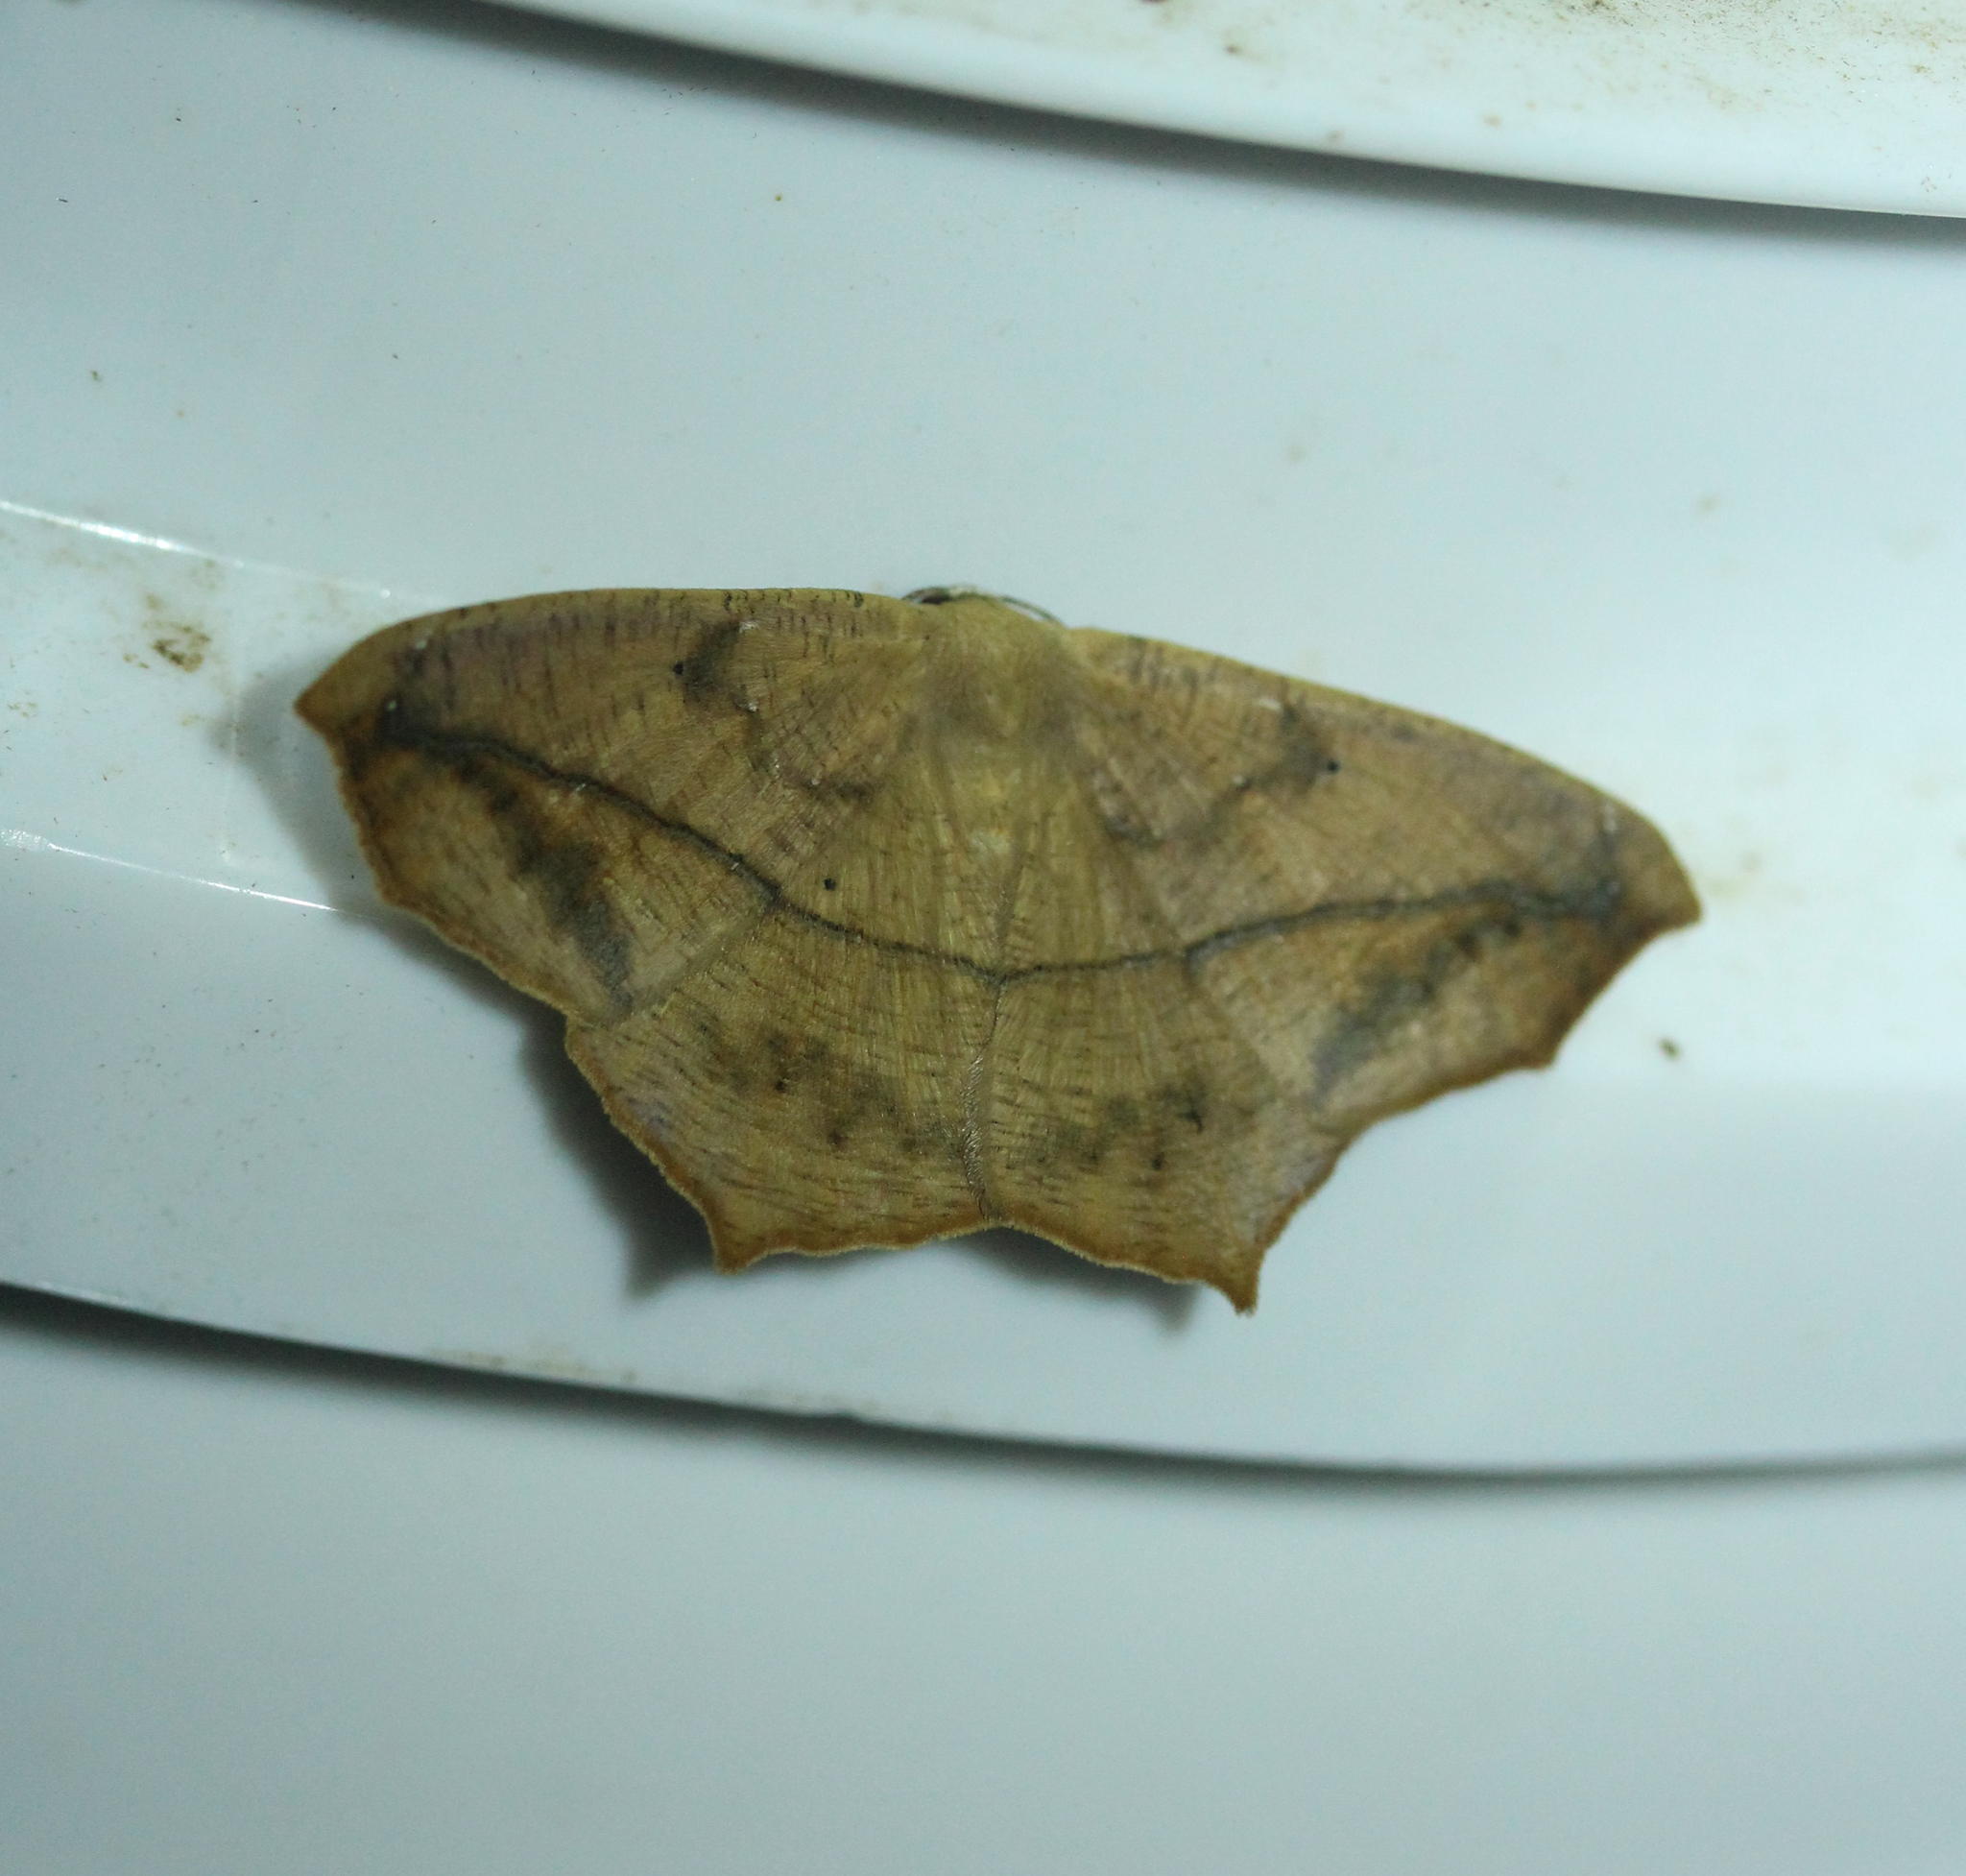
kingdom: Animalia
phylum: Arthropoda
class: Insecta
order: Lepidoptera
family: Geometridae
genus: Prochoerodes
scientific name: Prochoerodes lineola
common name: Large maple spanworm
